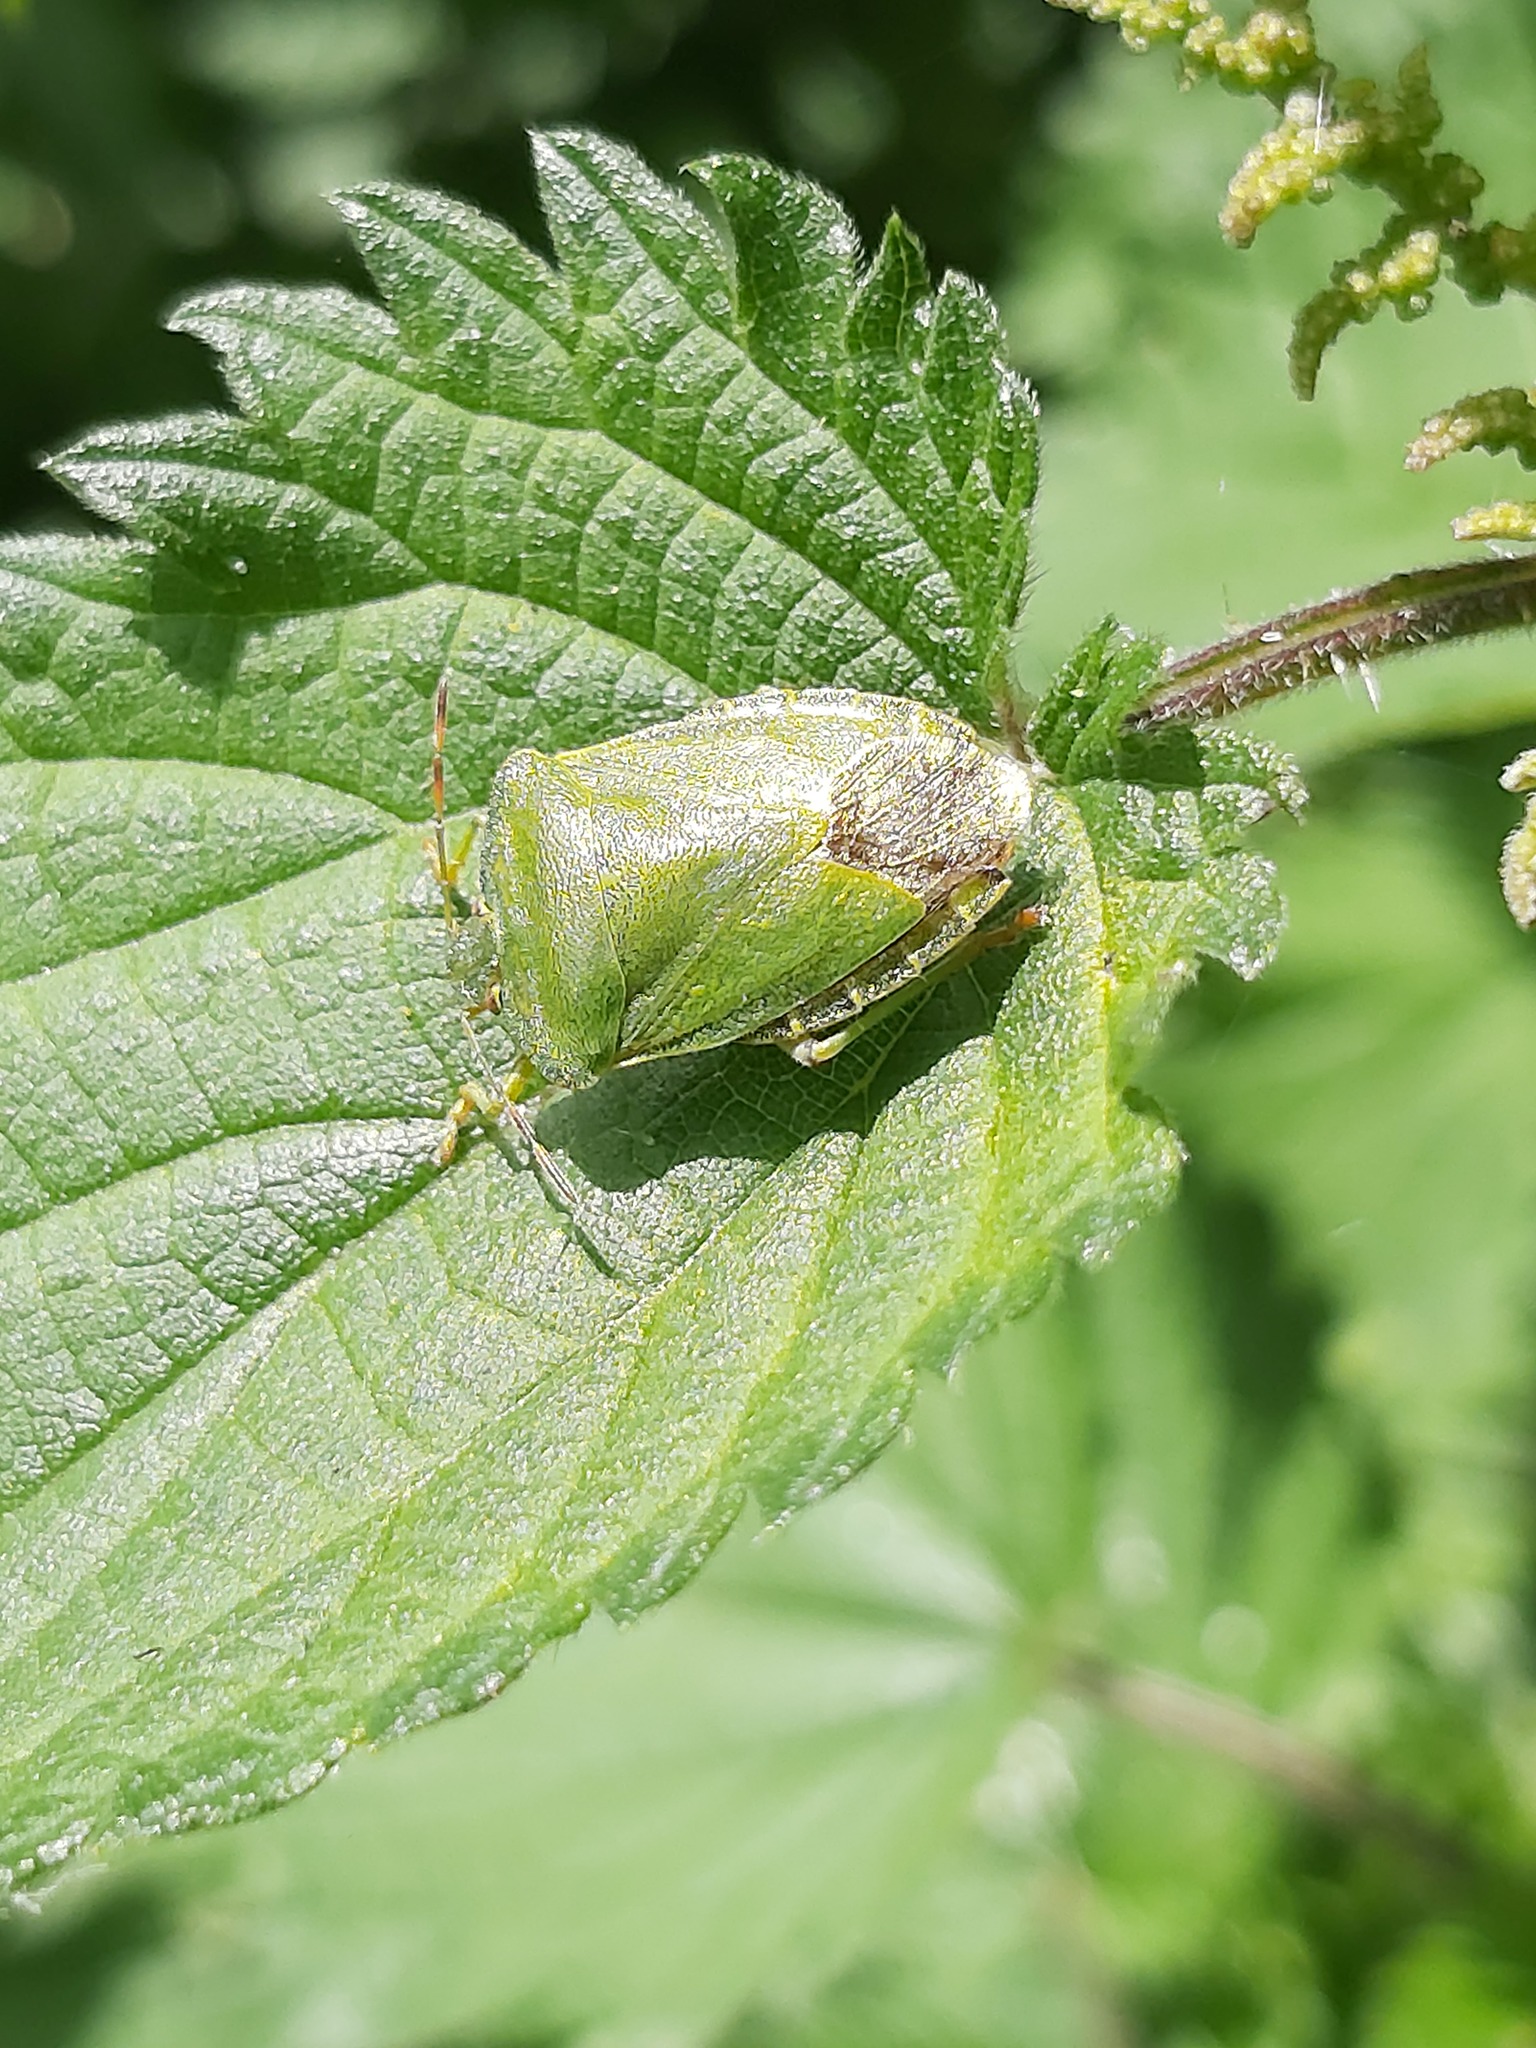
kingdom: Animalia
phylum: Arthropoda
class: Insecta
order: Hemiptera
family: Pentatomidae
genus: Palomena
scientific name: Palomena prasina
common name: Green shieldbug
